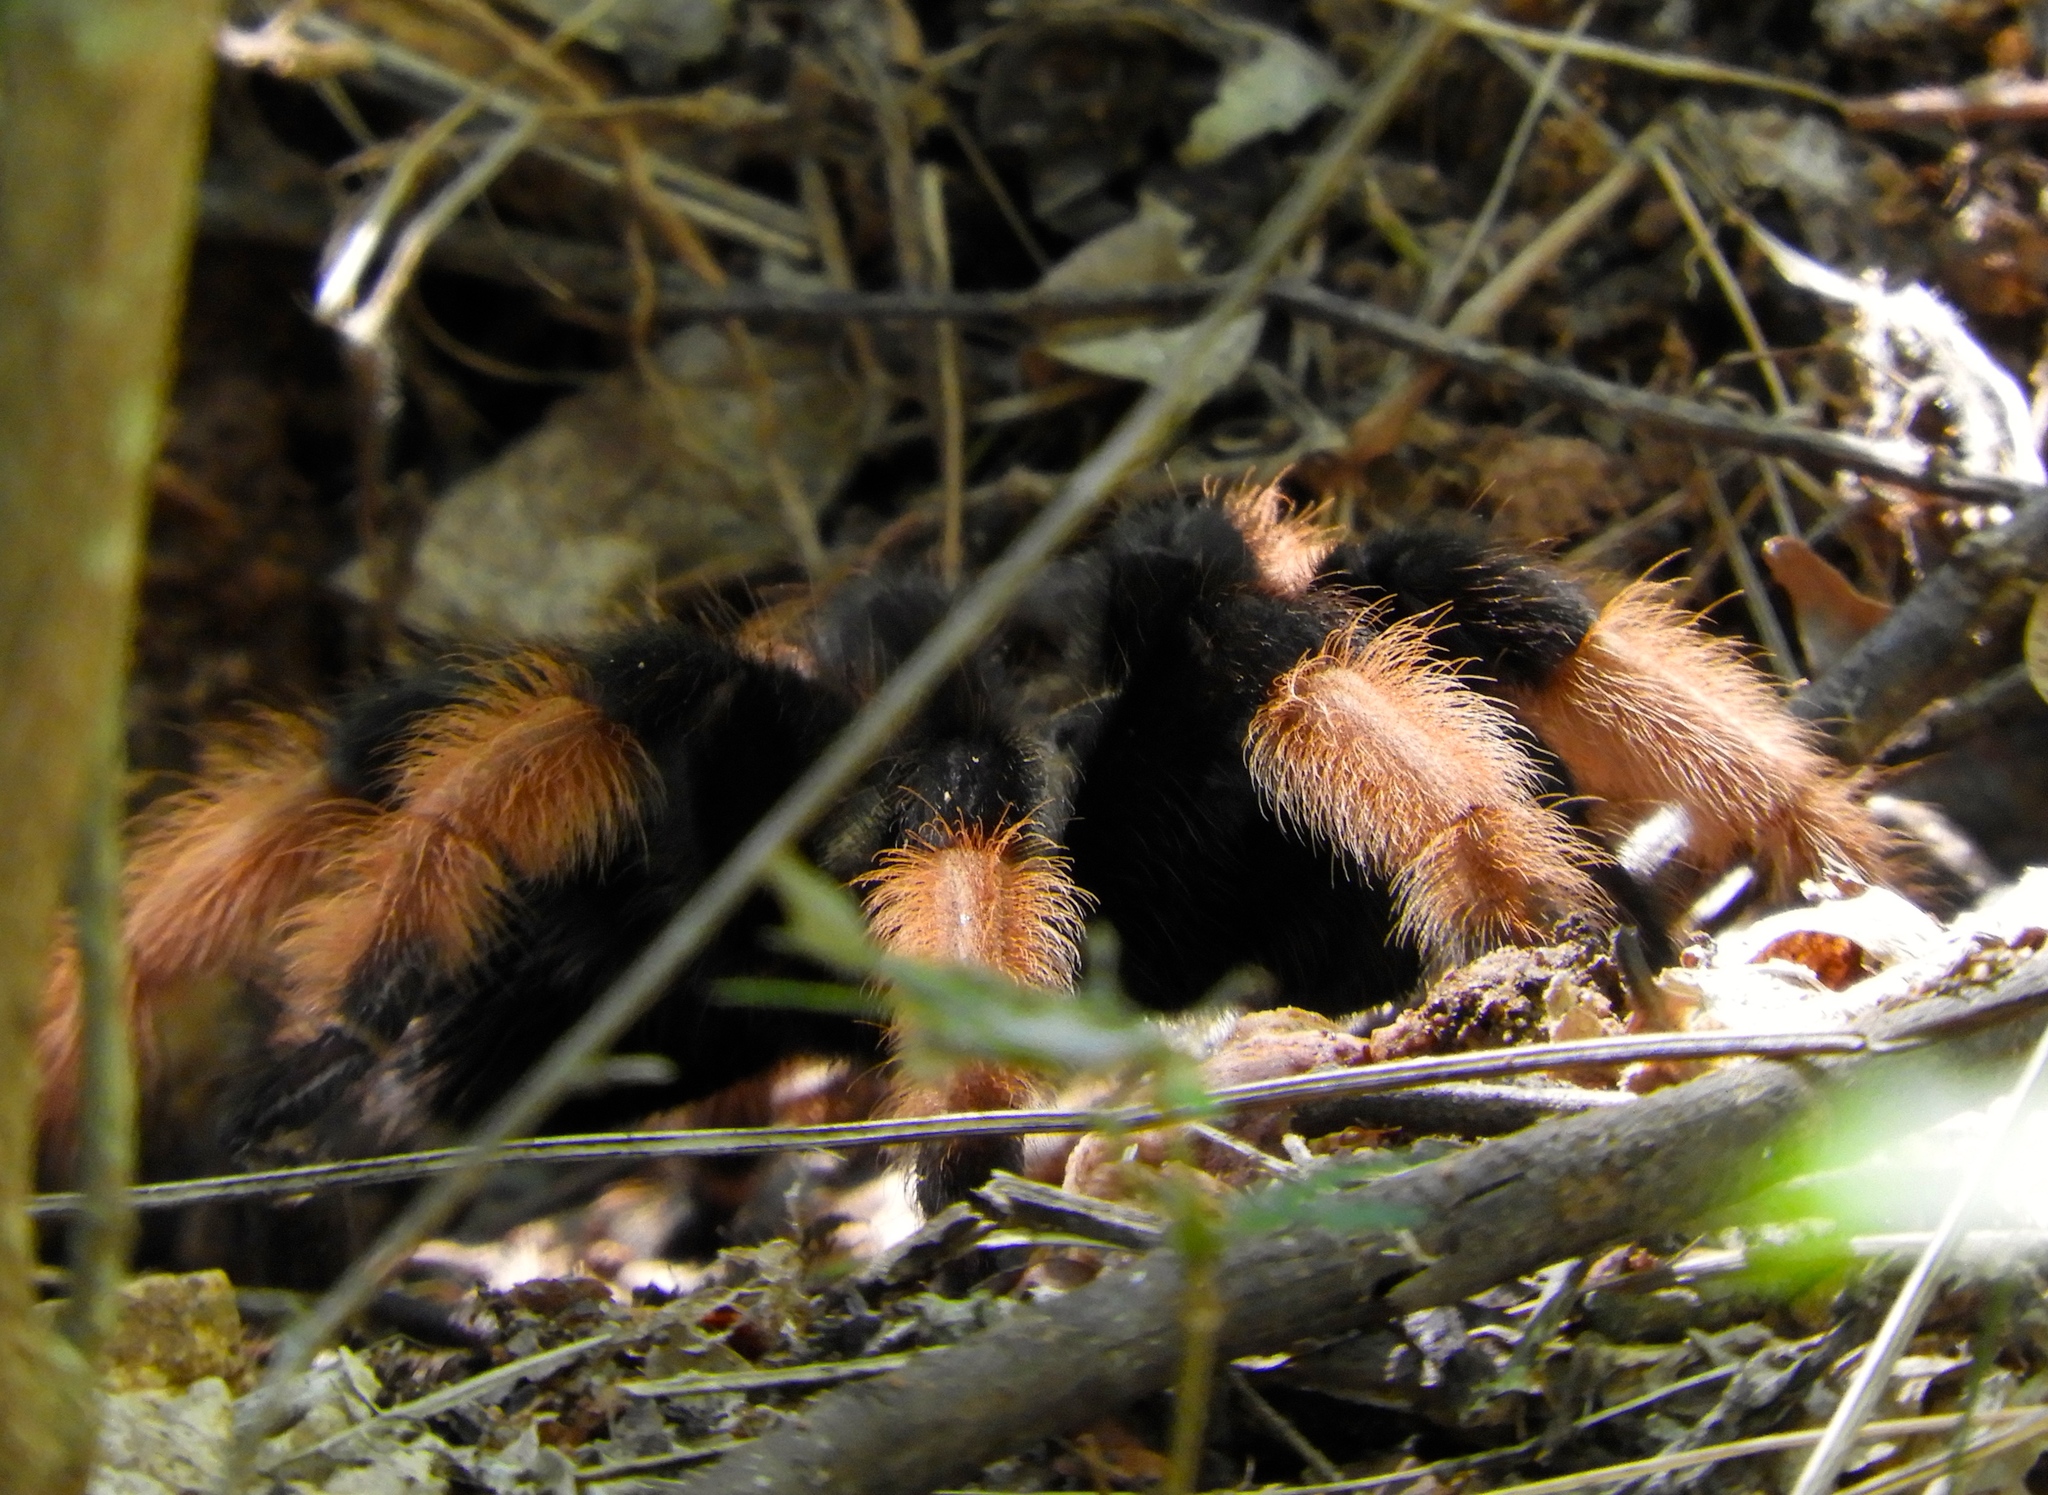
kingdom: Animalia
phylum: Arthropoda
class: Arachnida
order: Araneae
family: Theraphosidae
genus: Brachypelma
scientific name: Brachypelma emilia
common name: Mexican redleg
